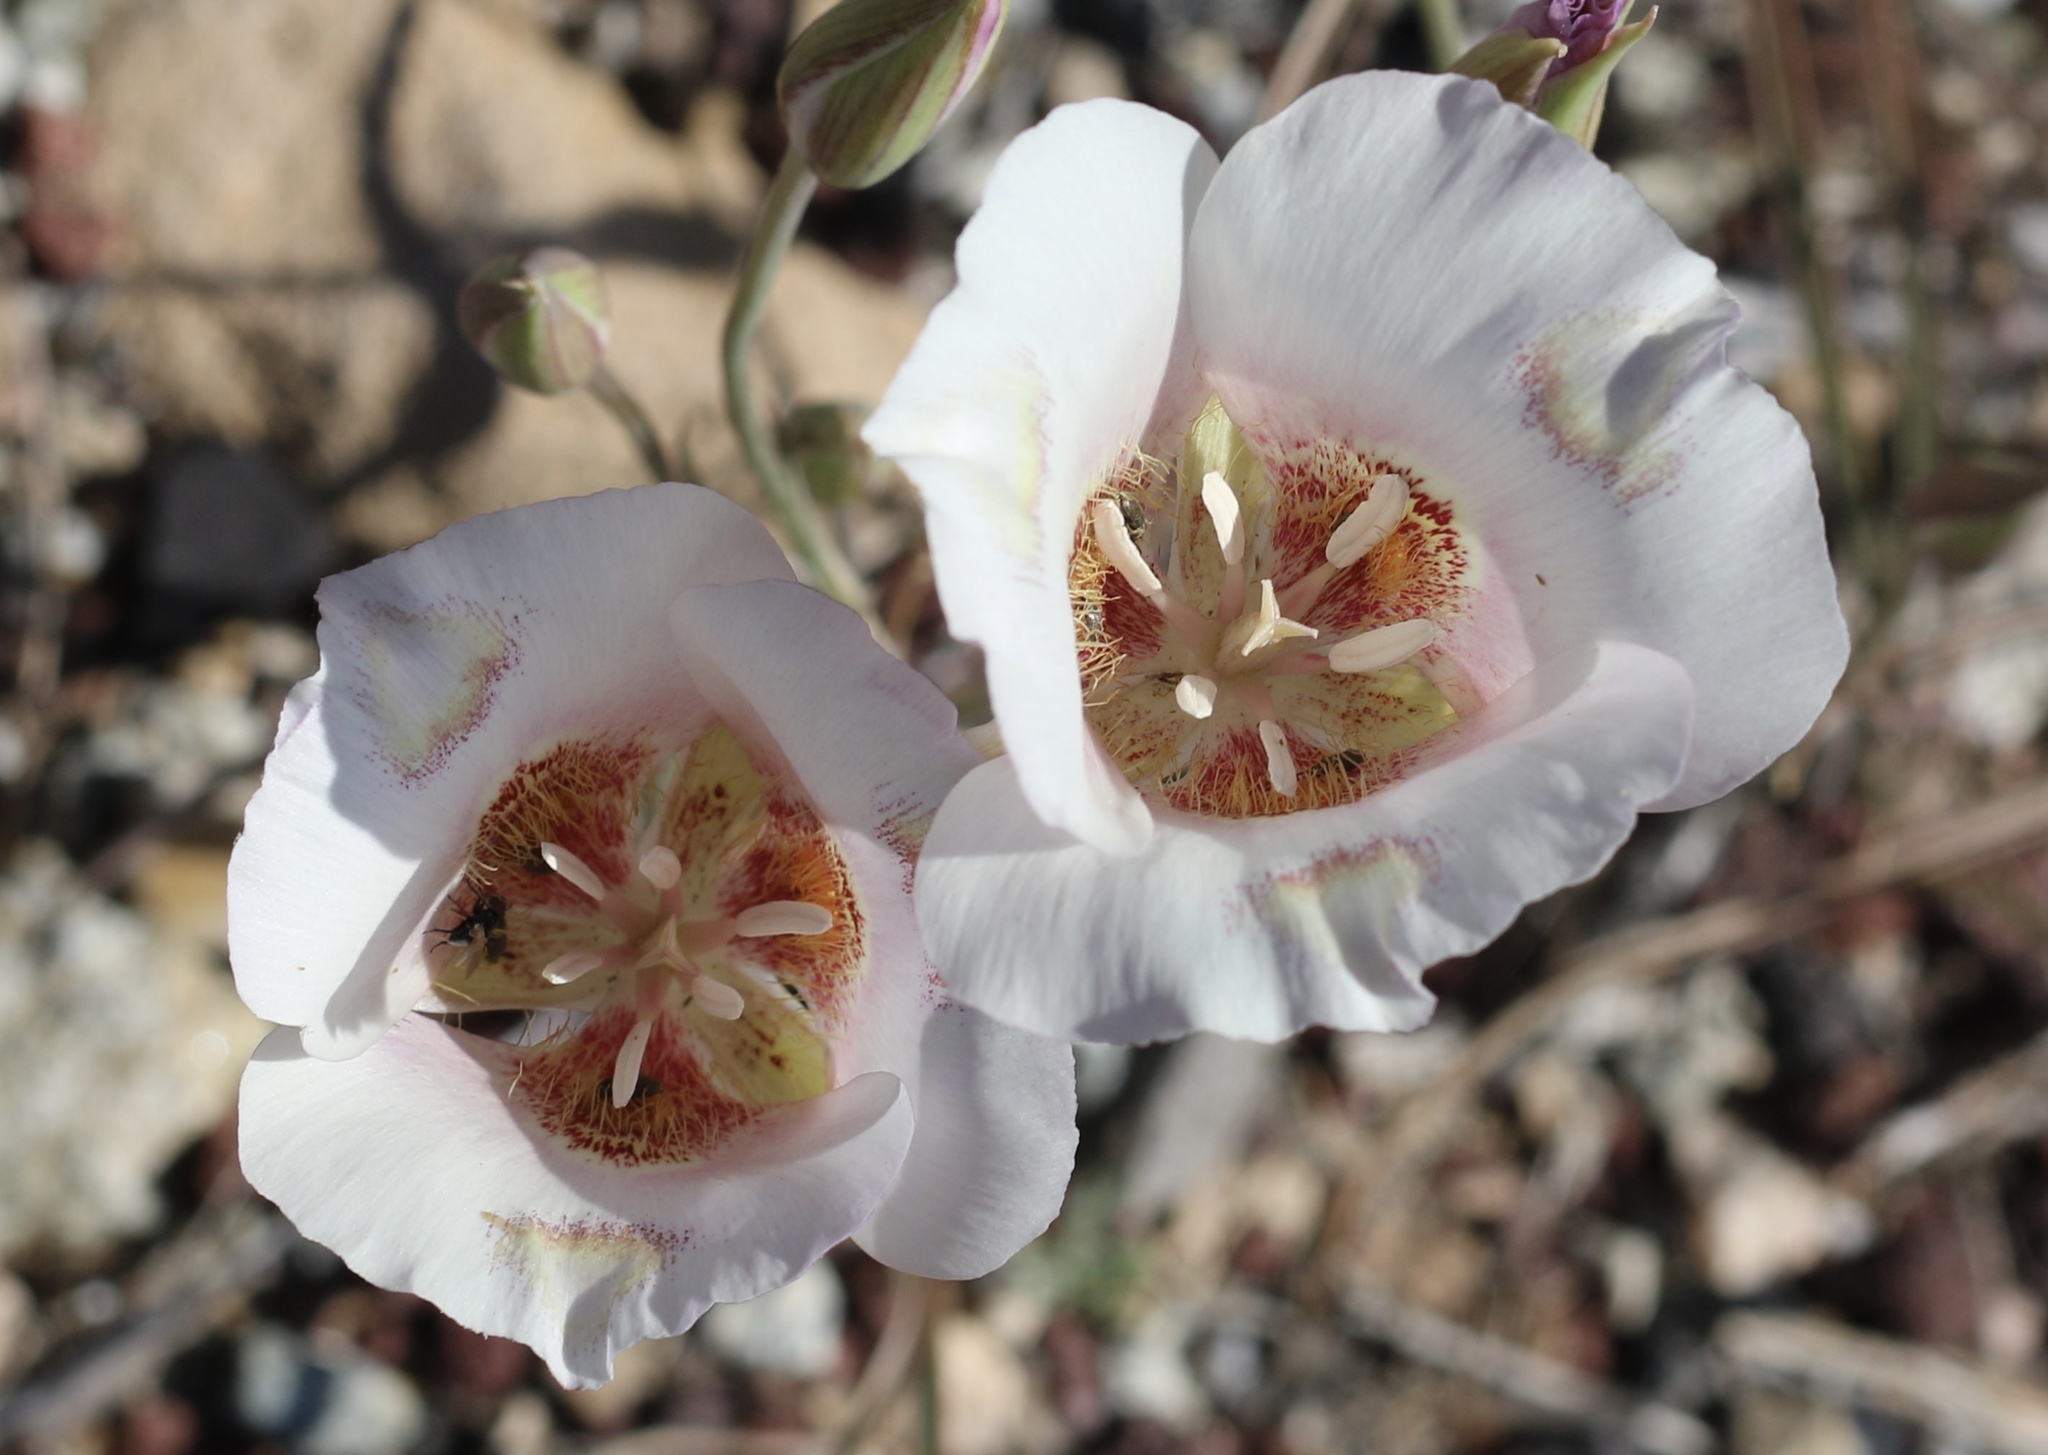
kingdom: Plantae
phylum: Tracheophyta
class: Liliopsida
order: Liliales
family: Liliaceae
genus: Calochortus
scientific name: Calochortus venustus
